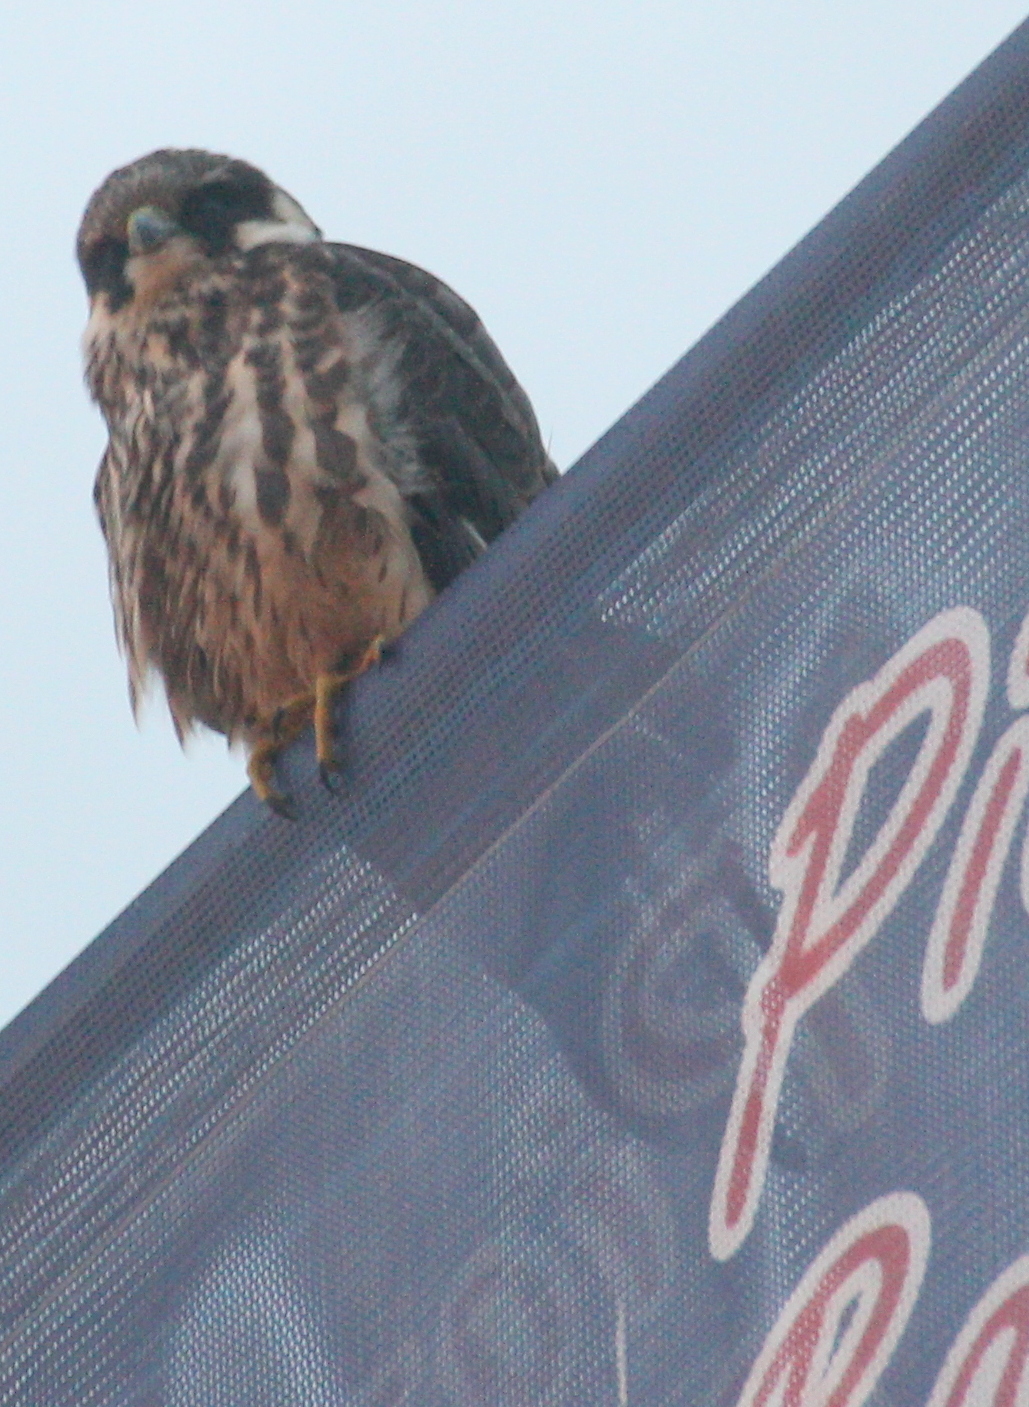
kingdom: Animalia
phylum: Chordata
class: Aves
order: Falconiformes
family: Falconidae
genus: Falco
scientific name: Falco subbuteo
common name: Eurasian hobby
